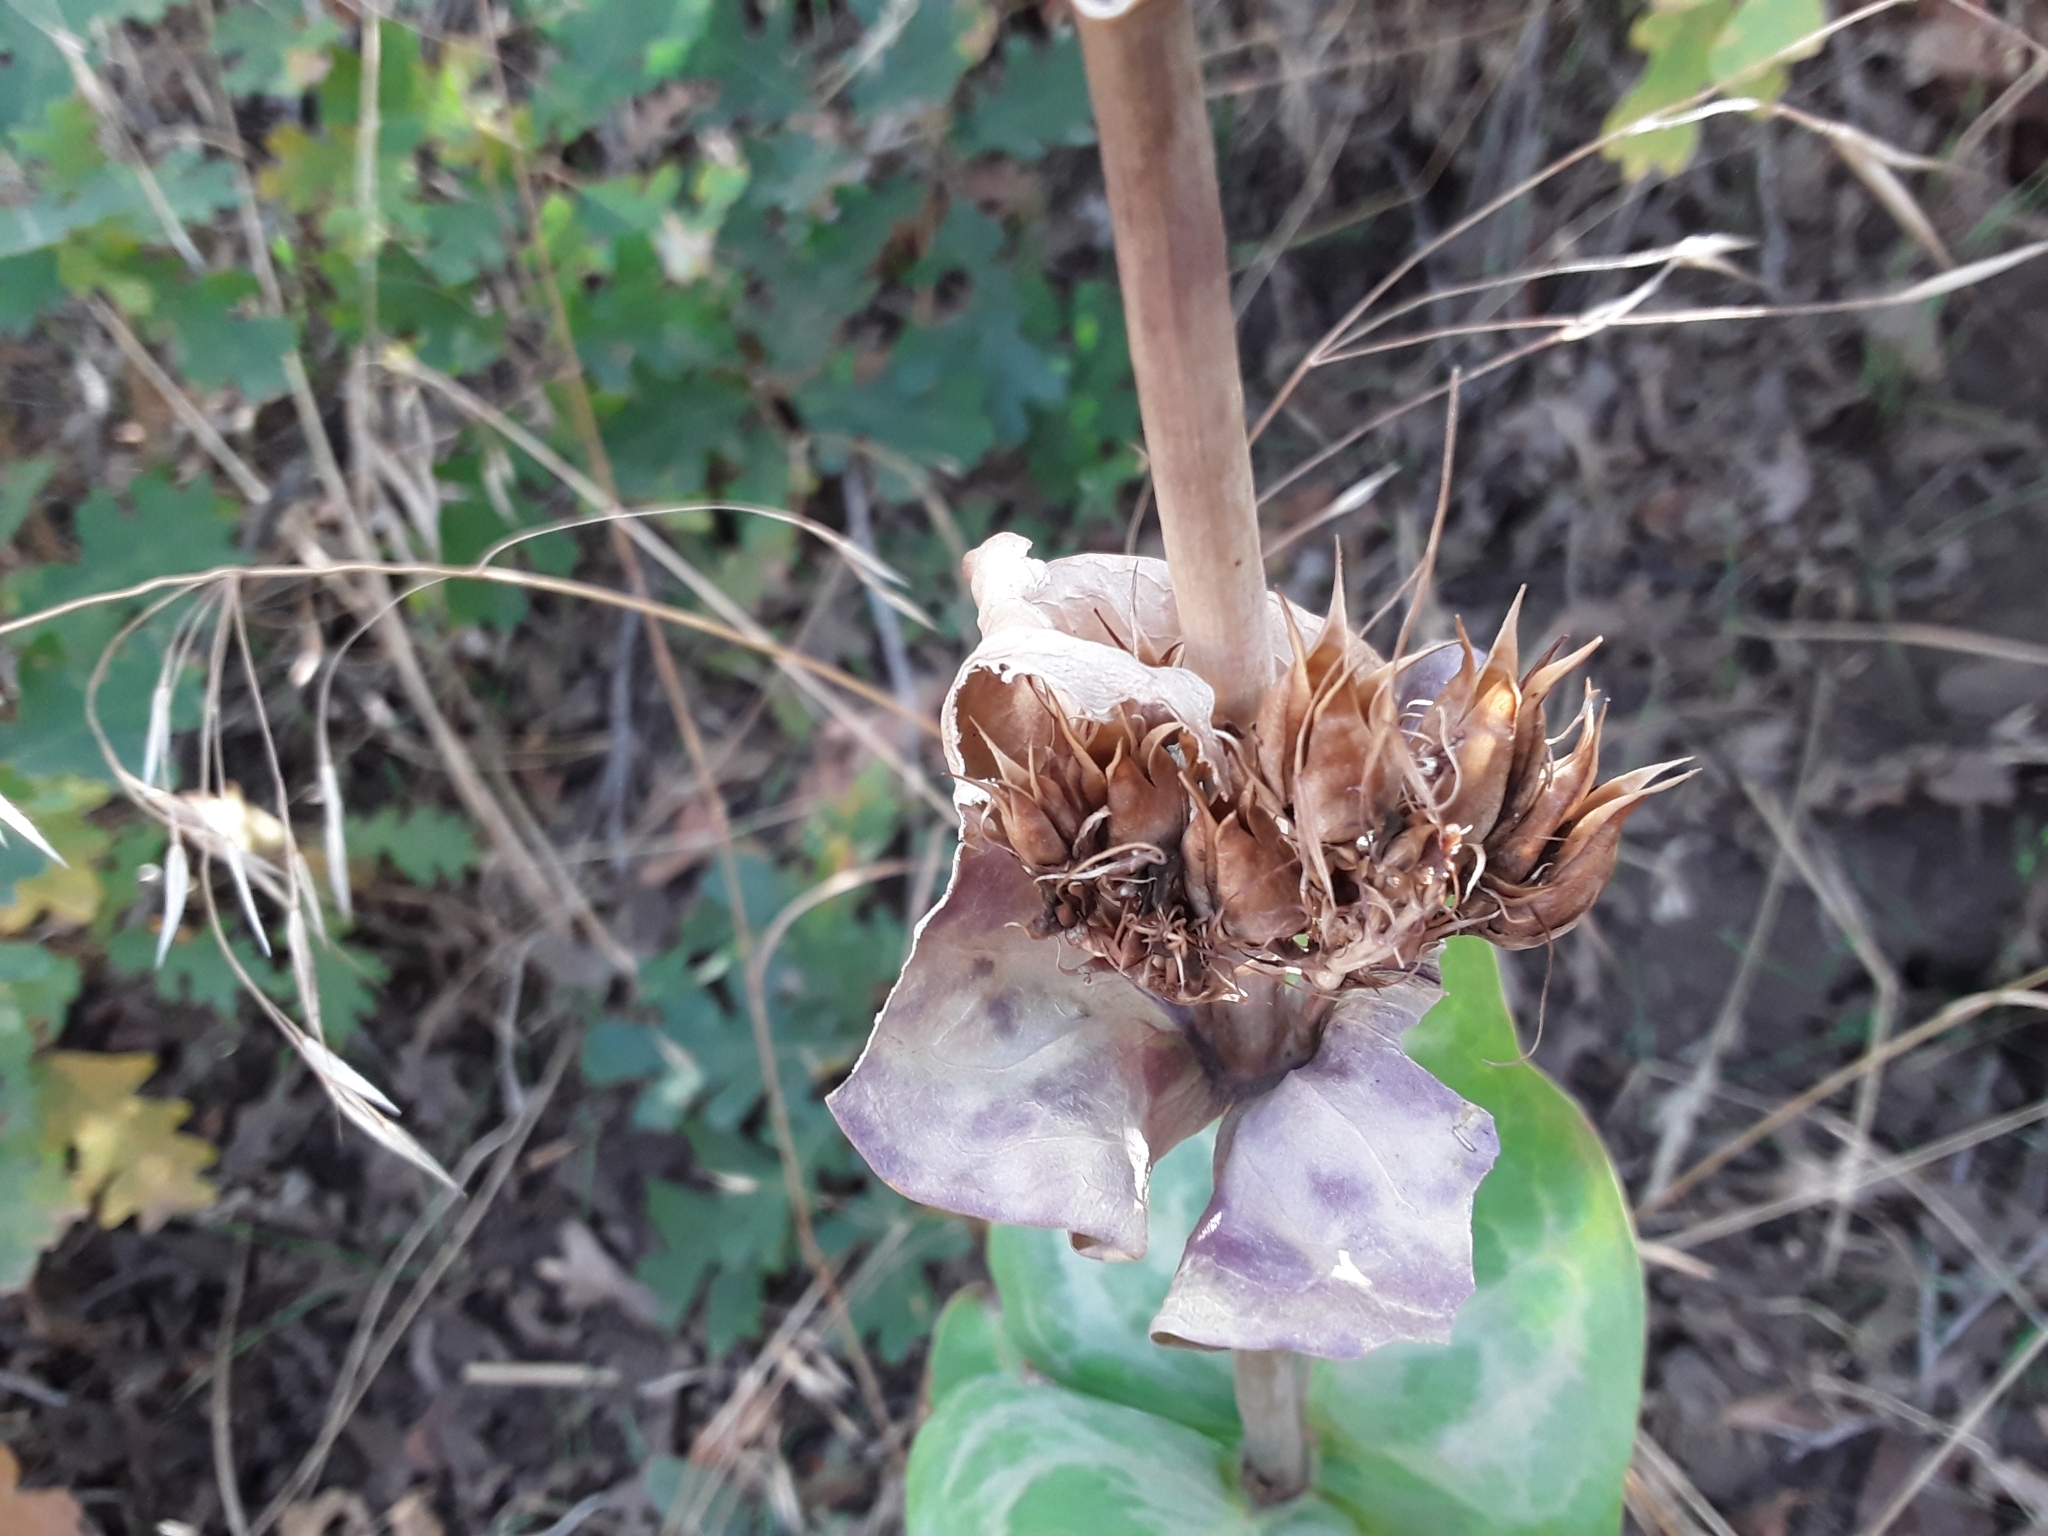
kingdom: Plantae
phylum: Tracheophyta
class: Magnoliopsida
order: Lamiales
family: Plantaginaceae
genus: Penstemon
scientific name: Penstemon cyananthus
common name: Wasatch penstemon
